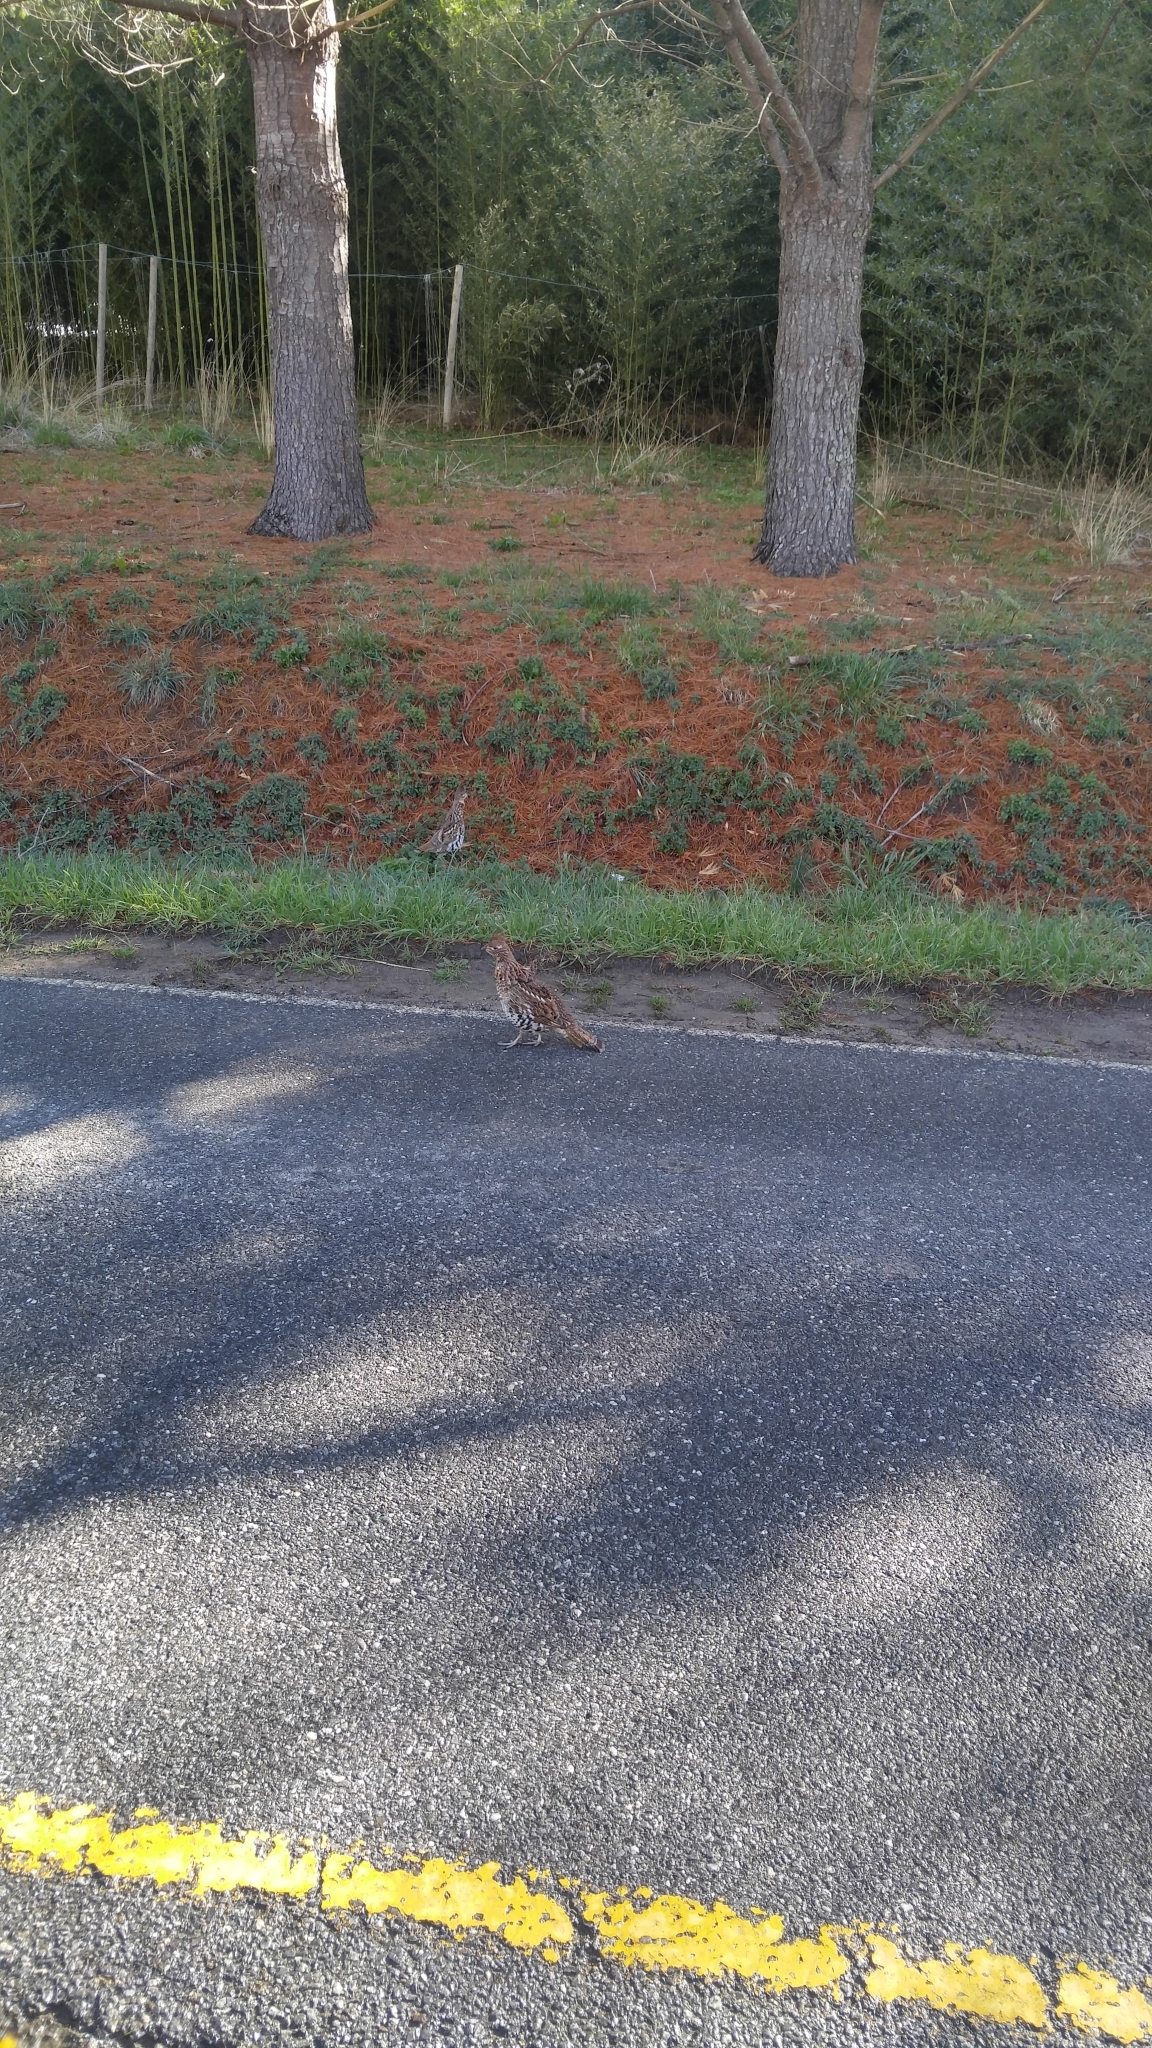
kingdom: Animalia
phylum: Chordata
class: Aves
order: Galliformes
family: Phasianidae
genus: Bonasa
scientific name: Bonasa umbellus
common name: Ruffed grouse
